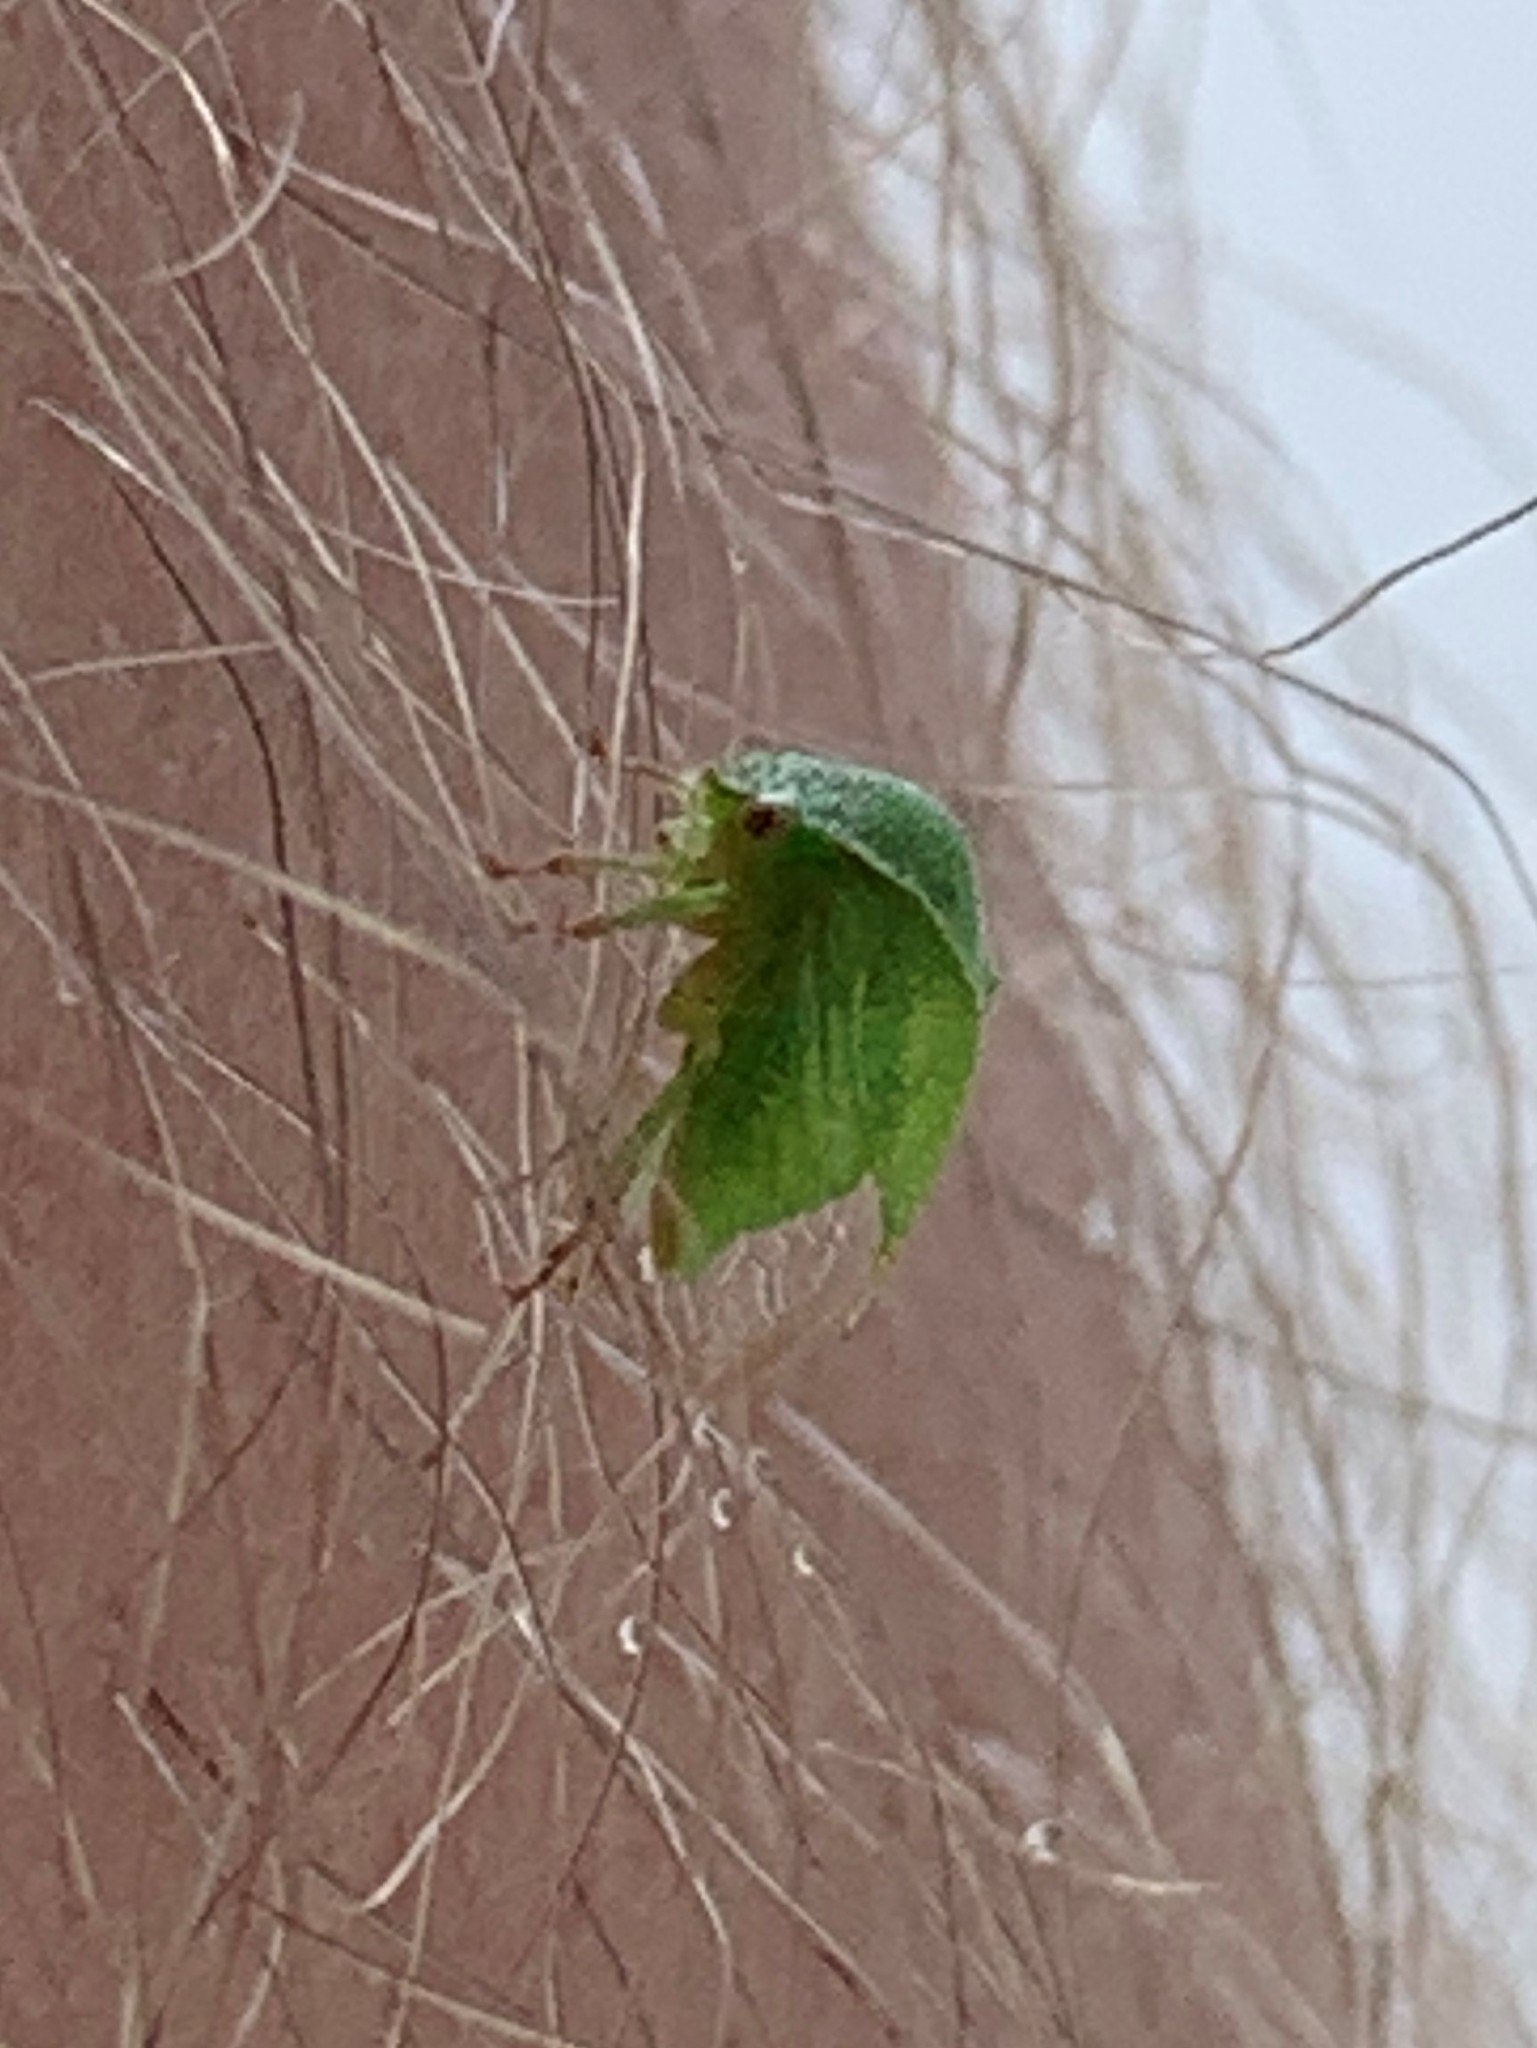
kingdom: Animalia
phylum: Arthropoda
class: Insecta
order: Hemiptera
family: Membracidae
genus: Spissistilus
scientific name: Spissistilus festina
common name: Membracid bug
